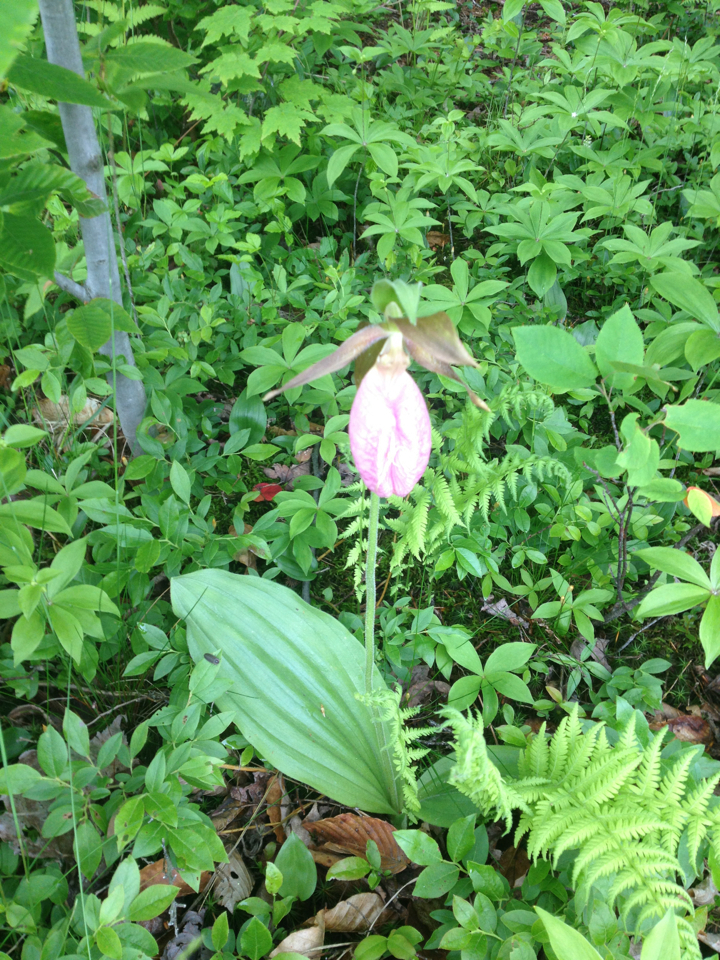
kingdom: Plantae
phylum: Tracheophyta
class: Liliopsida
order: Asparagales
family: Orchidaceae
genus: Cypripedium
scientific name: Cypripedium acaule
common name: Pink lady's-slipper
